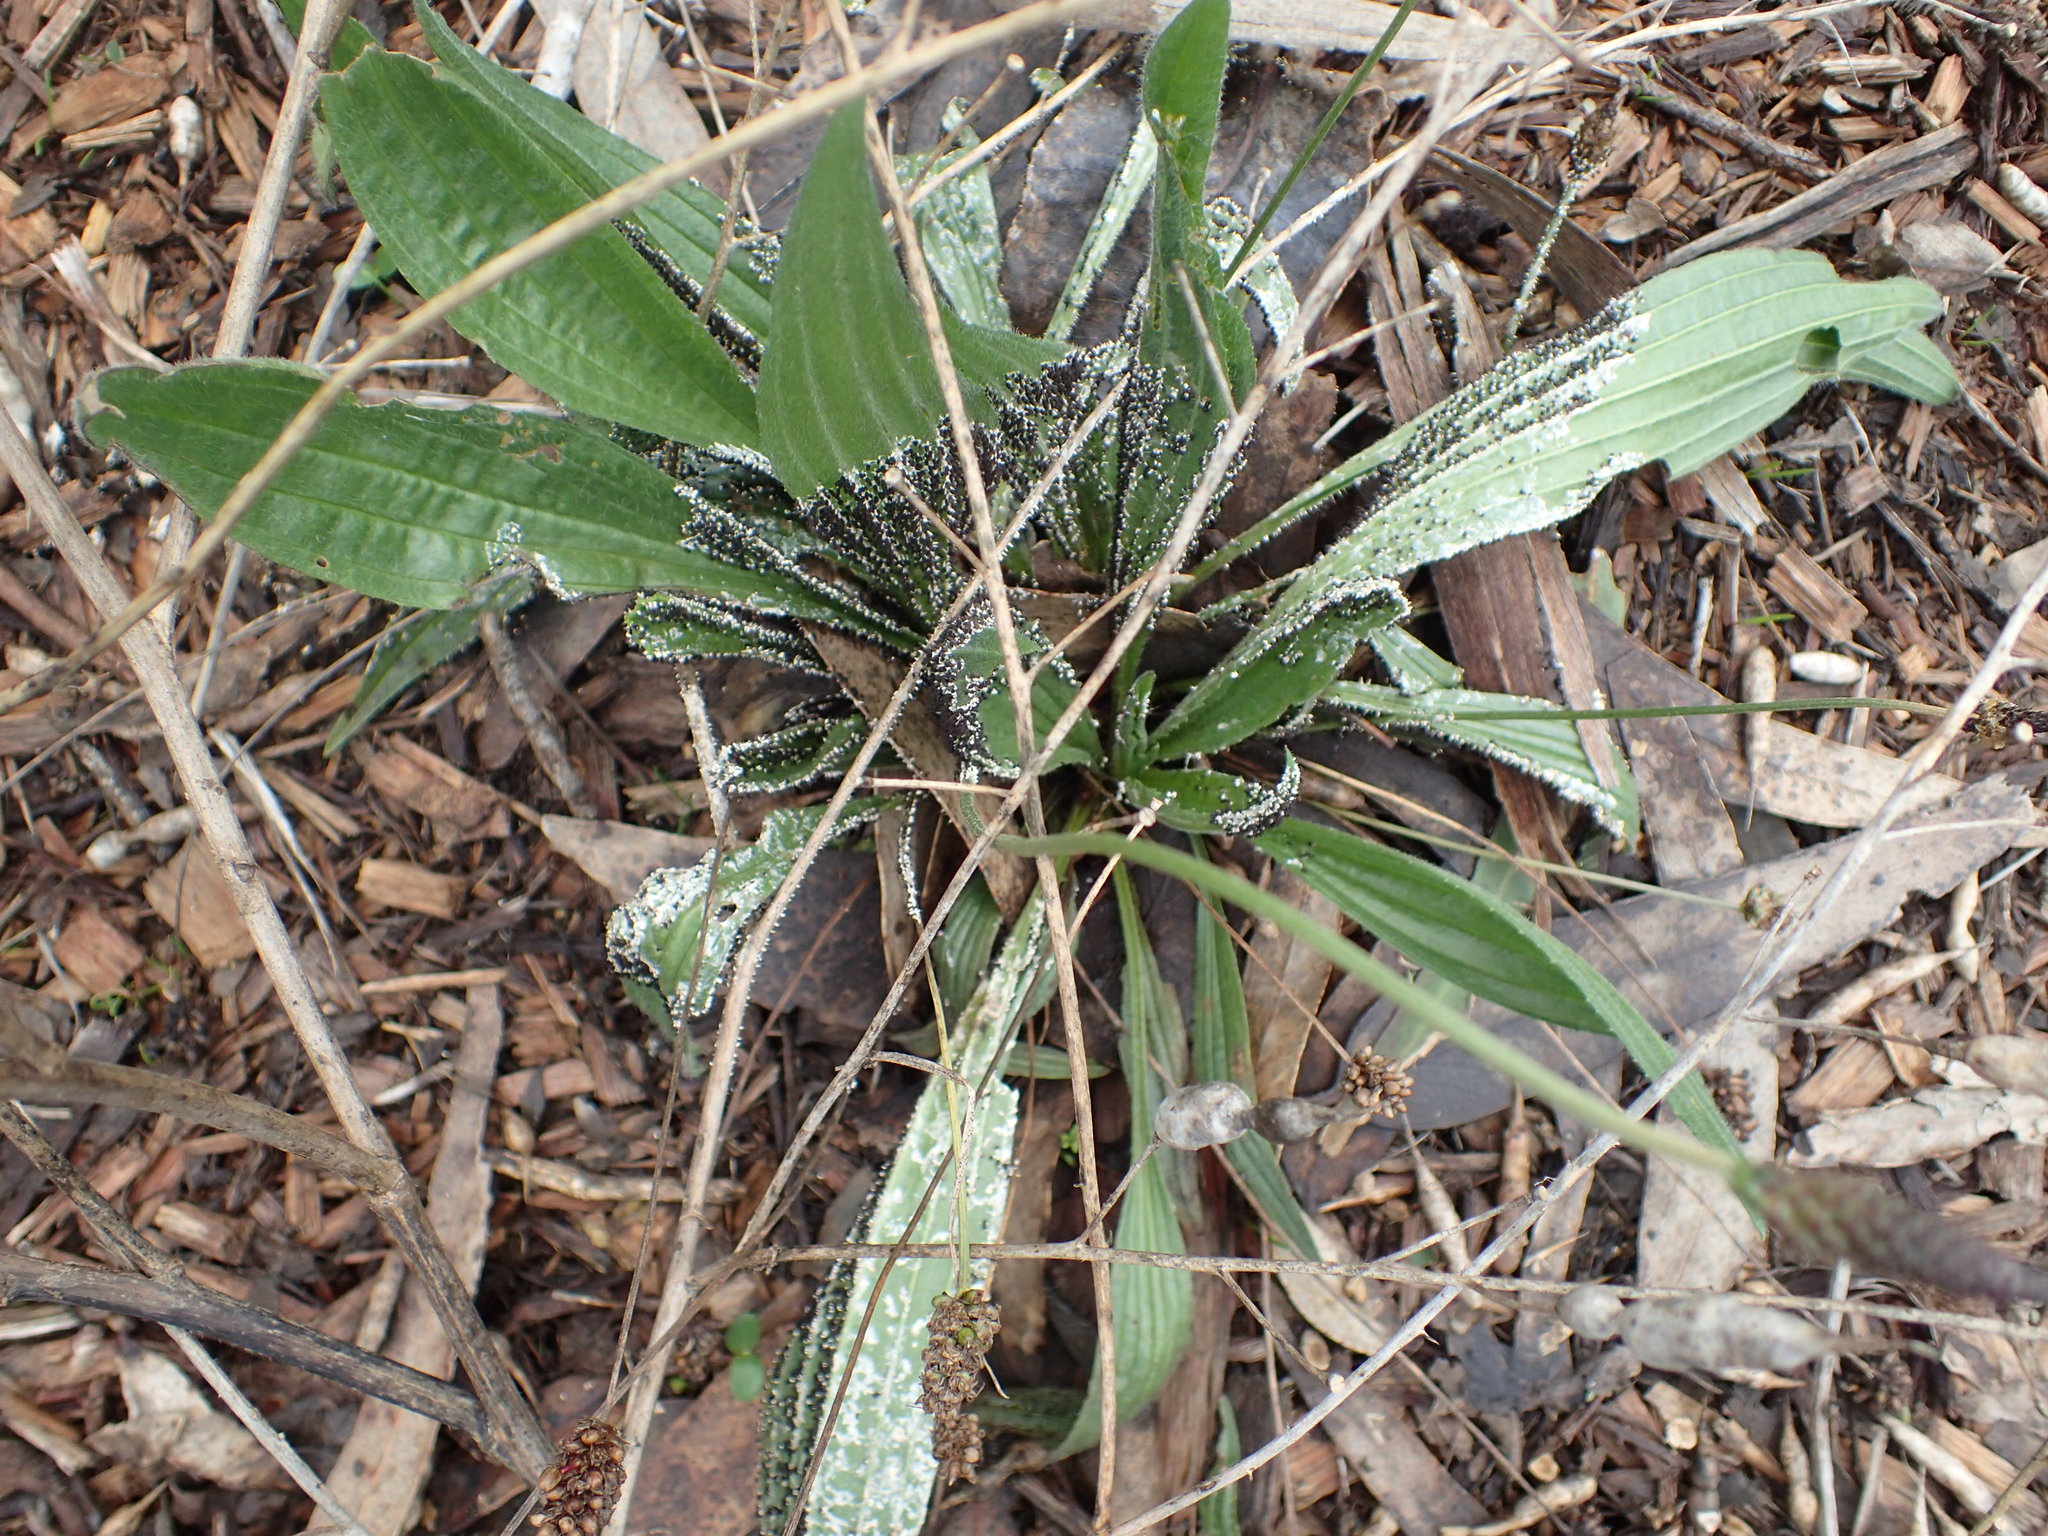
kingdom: Protozoa
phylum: Mycetozoa
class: Myxomycetes
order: Physarales
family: Didymiaceae
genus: Diachea
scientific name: Diachea leucopodia
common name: White-footed slime
